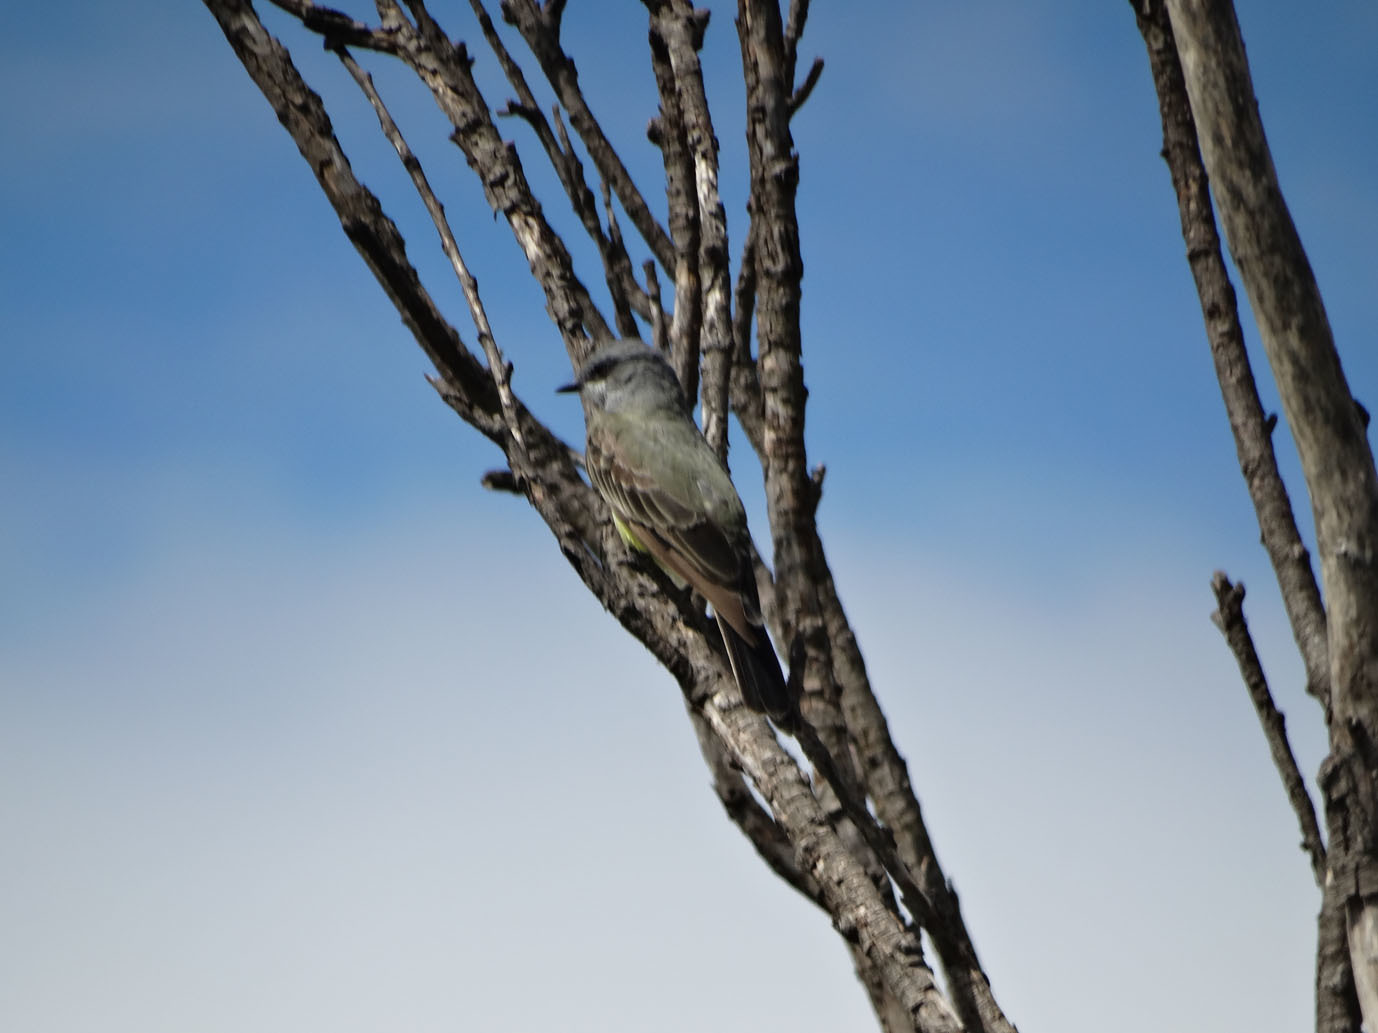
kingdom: Animalia
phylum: Chordata
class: Aves
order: Passeriformes
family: Tyrannidae
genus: Tyrannus
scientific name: Tyrannus vociferans
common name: Cassin's kingbird
